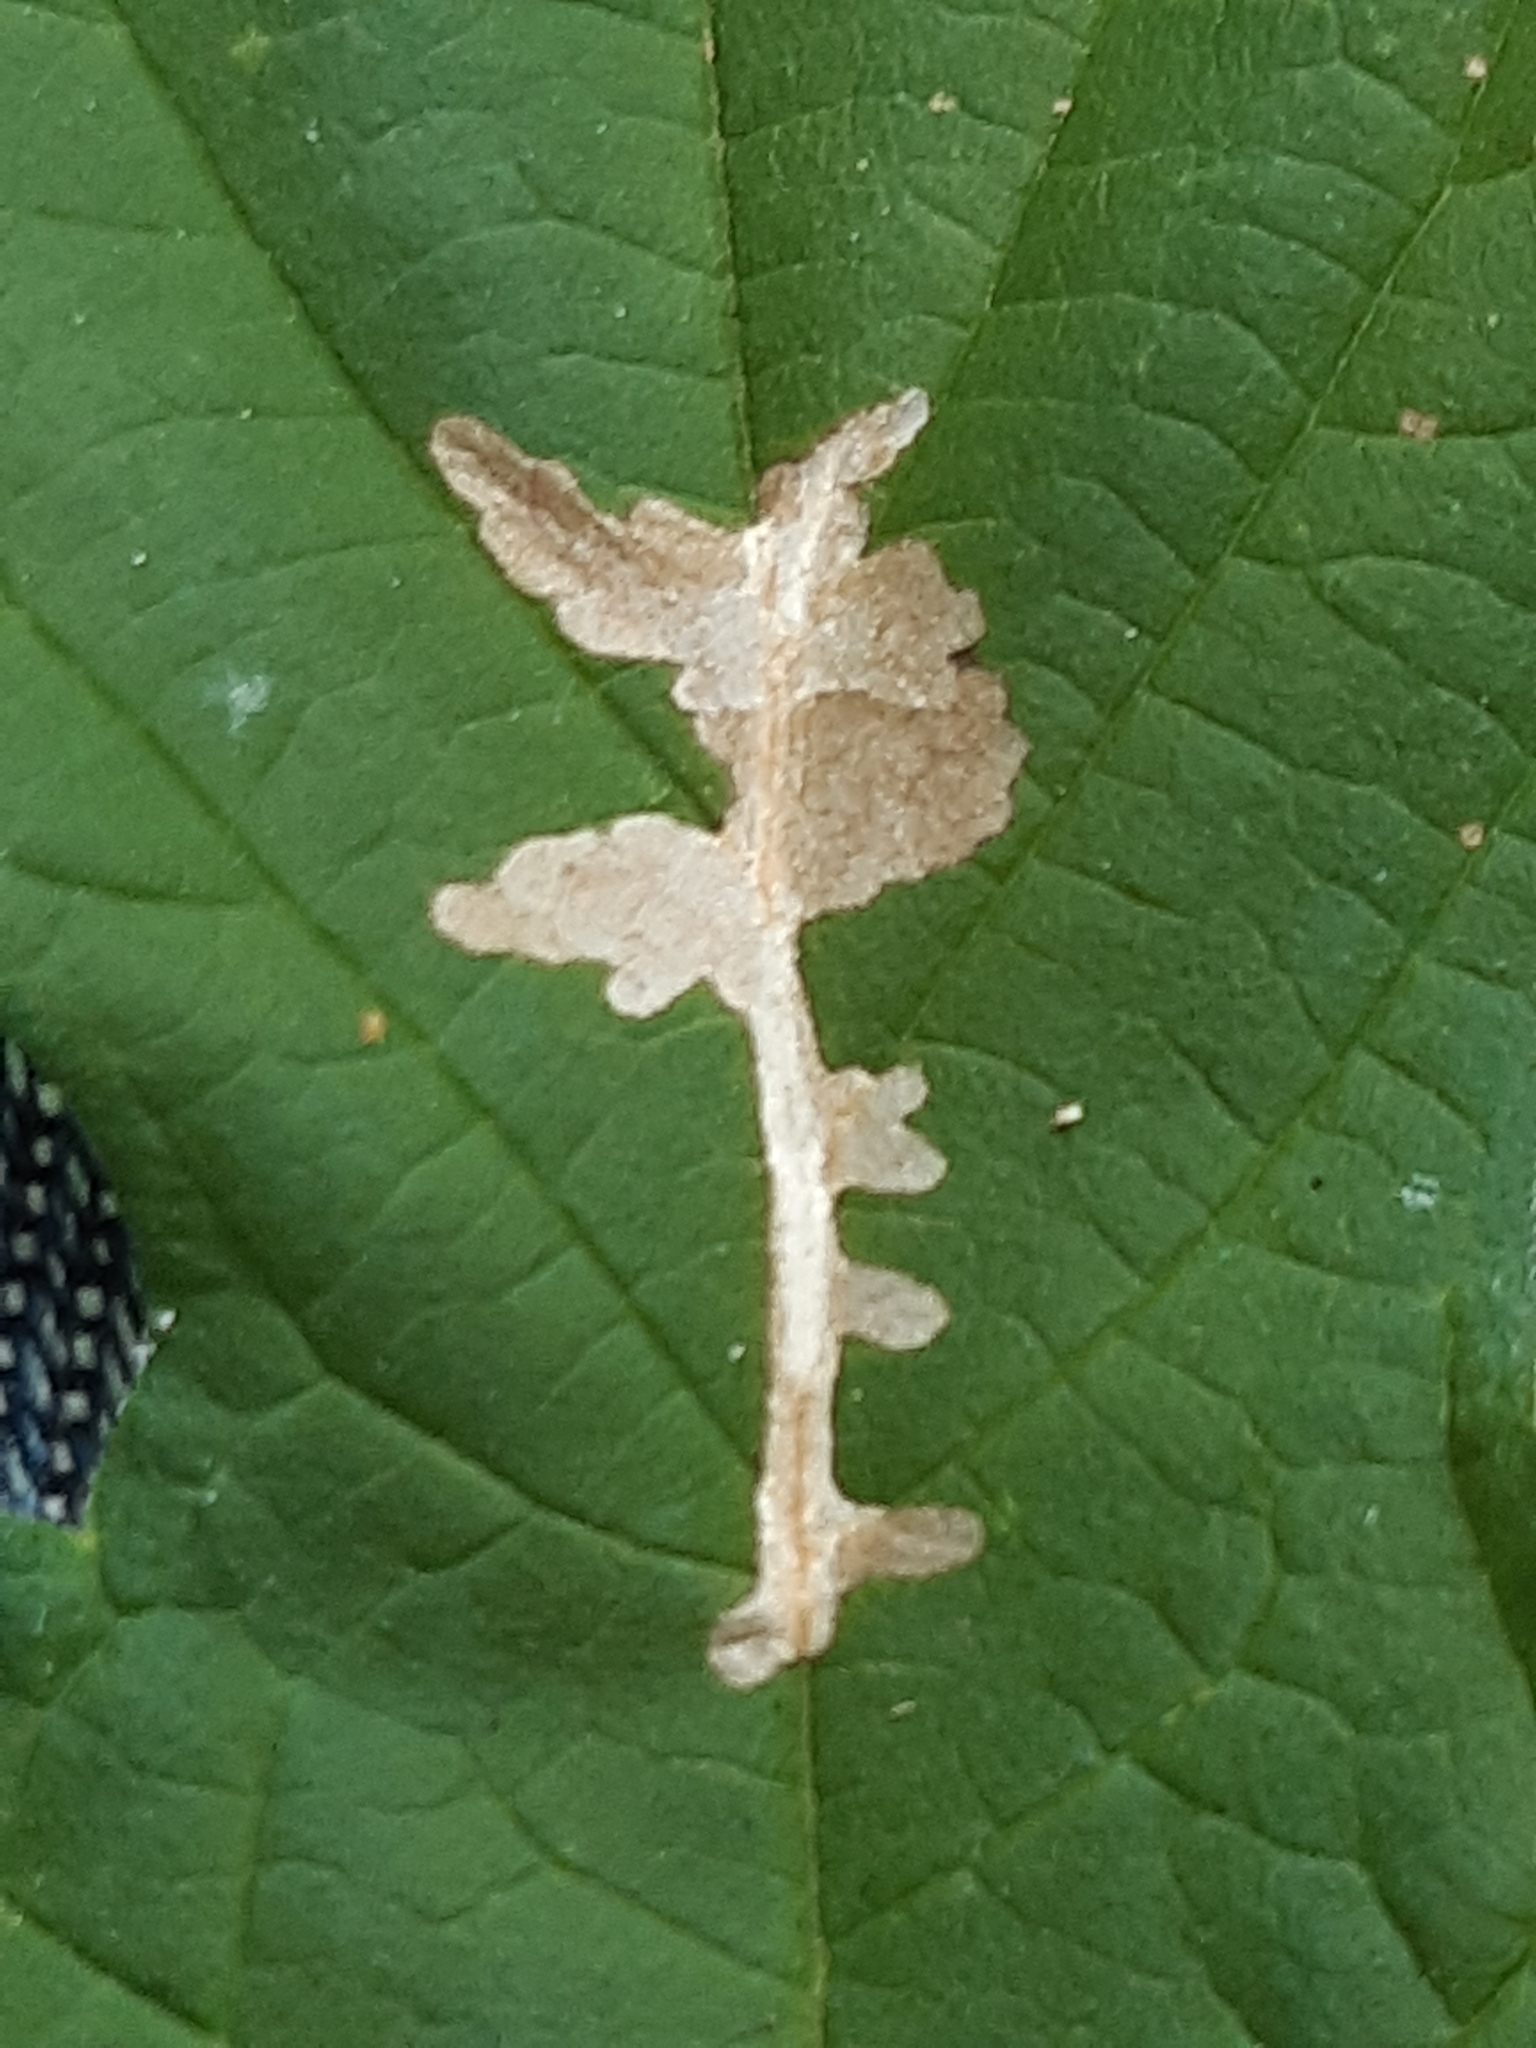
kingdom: Animalia
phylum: Arthropoda
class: Insecta
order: Lepidoptera
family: Cosmopterigidae
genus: Cosmopterix
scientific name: Cosmopterix zieglerella
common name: Hedge cosmet
